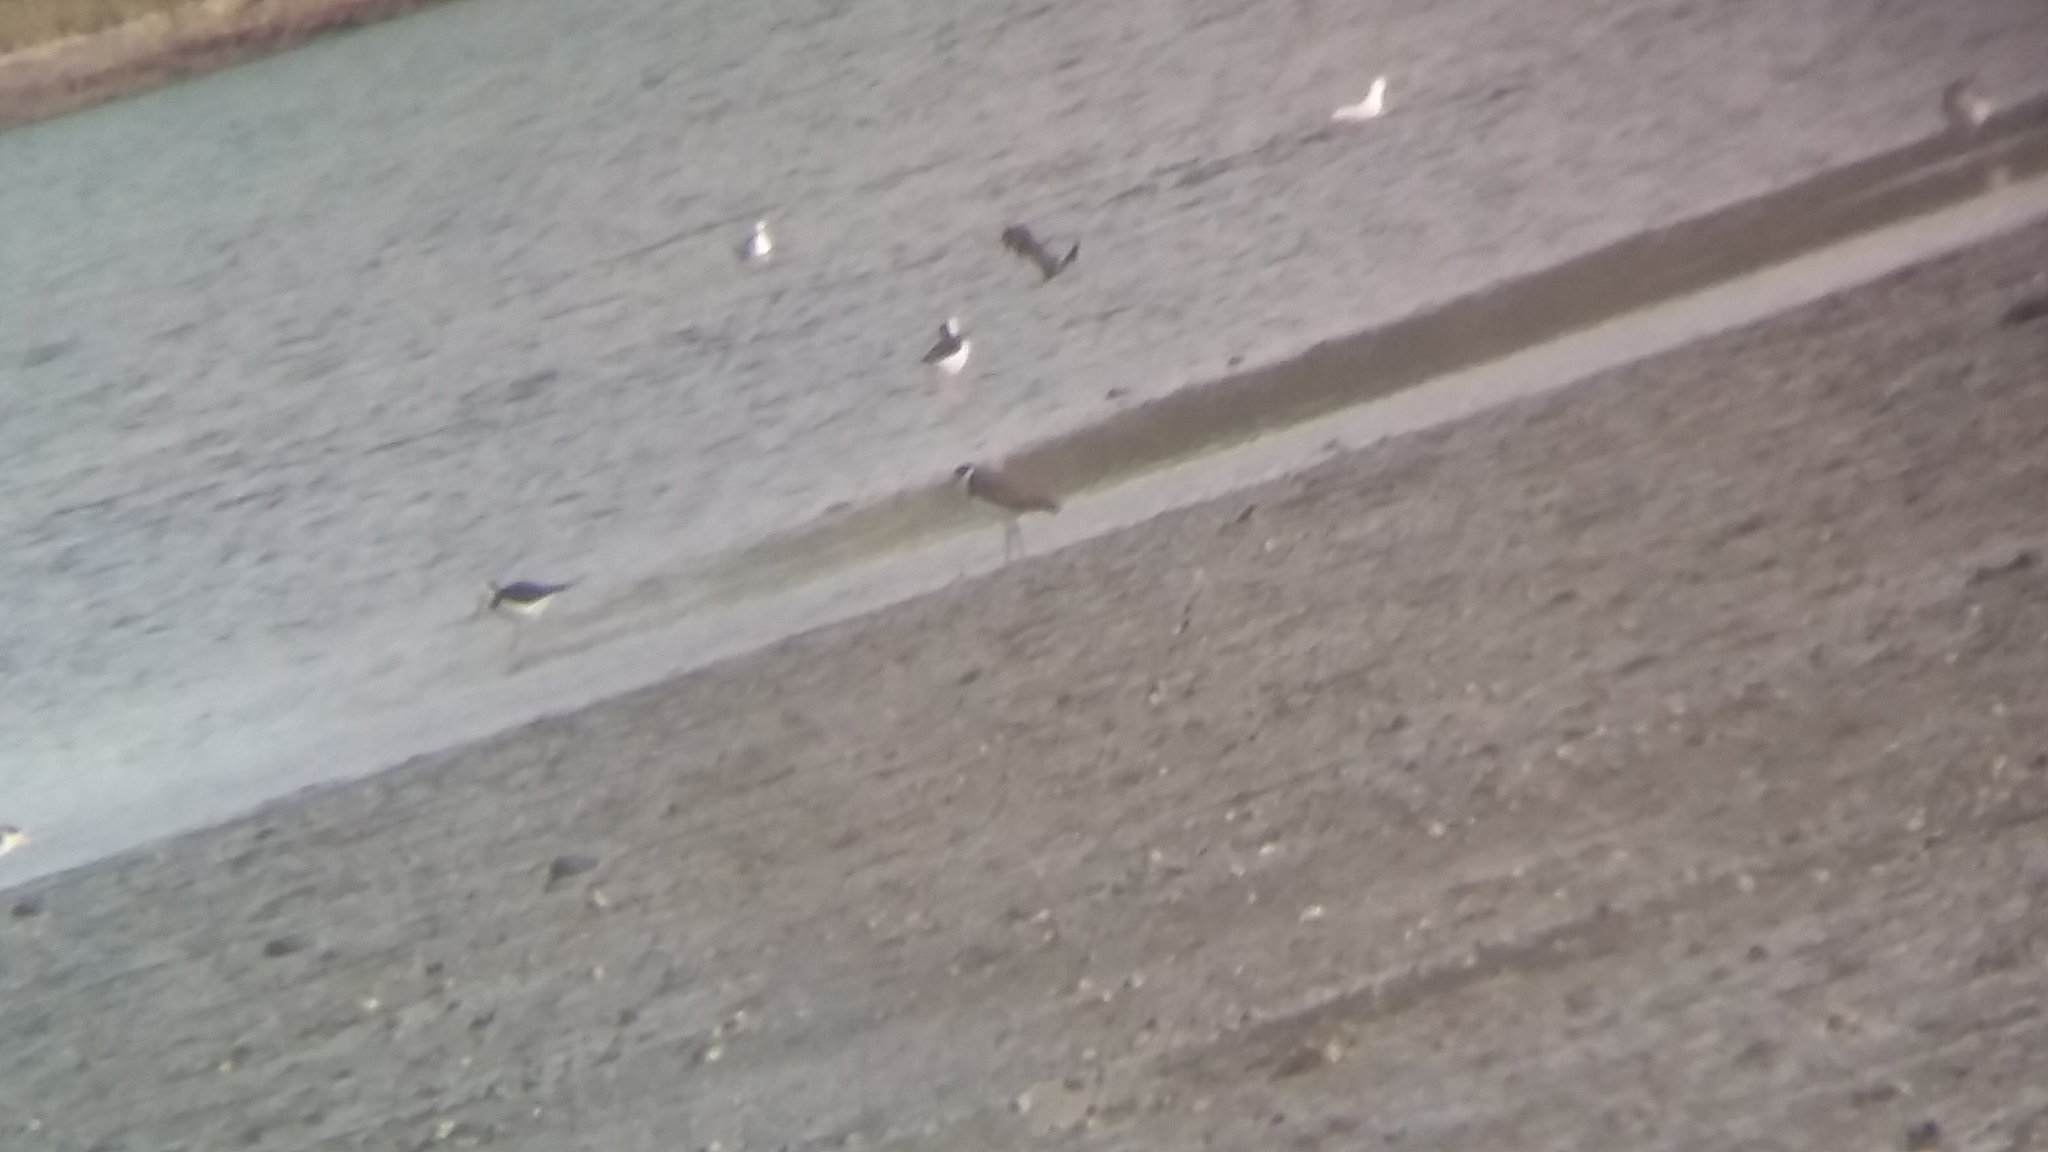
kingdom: Animalia
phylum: Chordata
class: Aves
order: Charadriiformes
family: Recurvirostridae
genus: Himantopus
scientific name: Himantopus leucocephalus
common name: White-headed stilt
